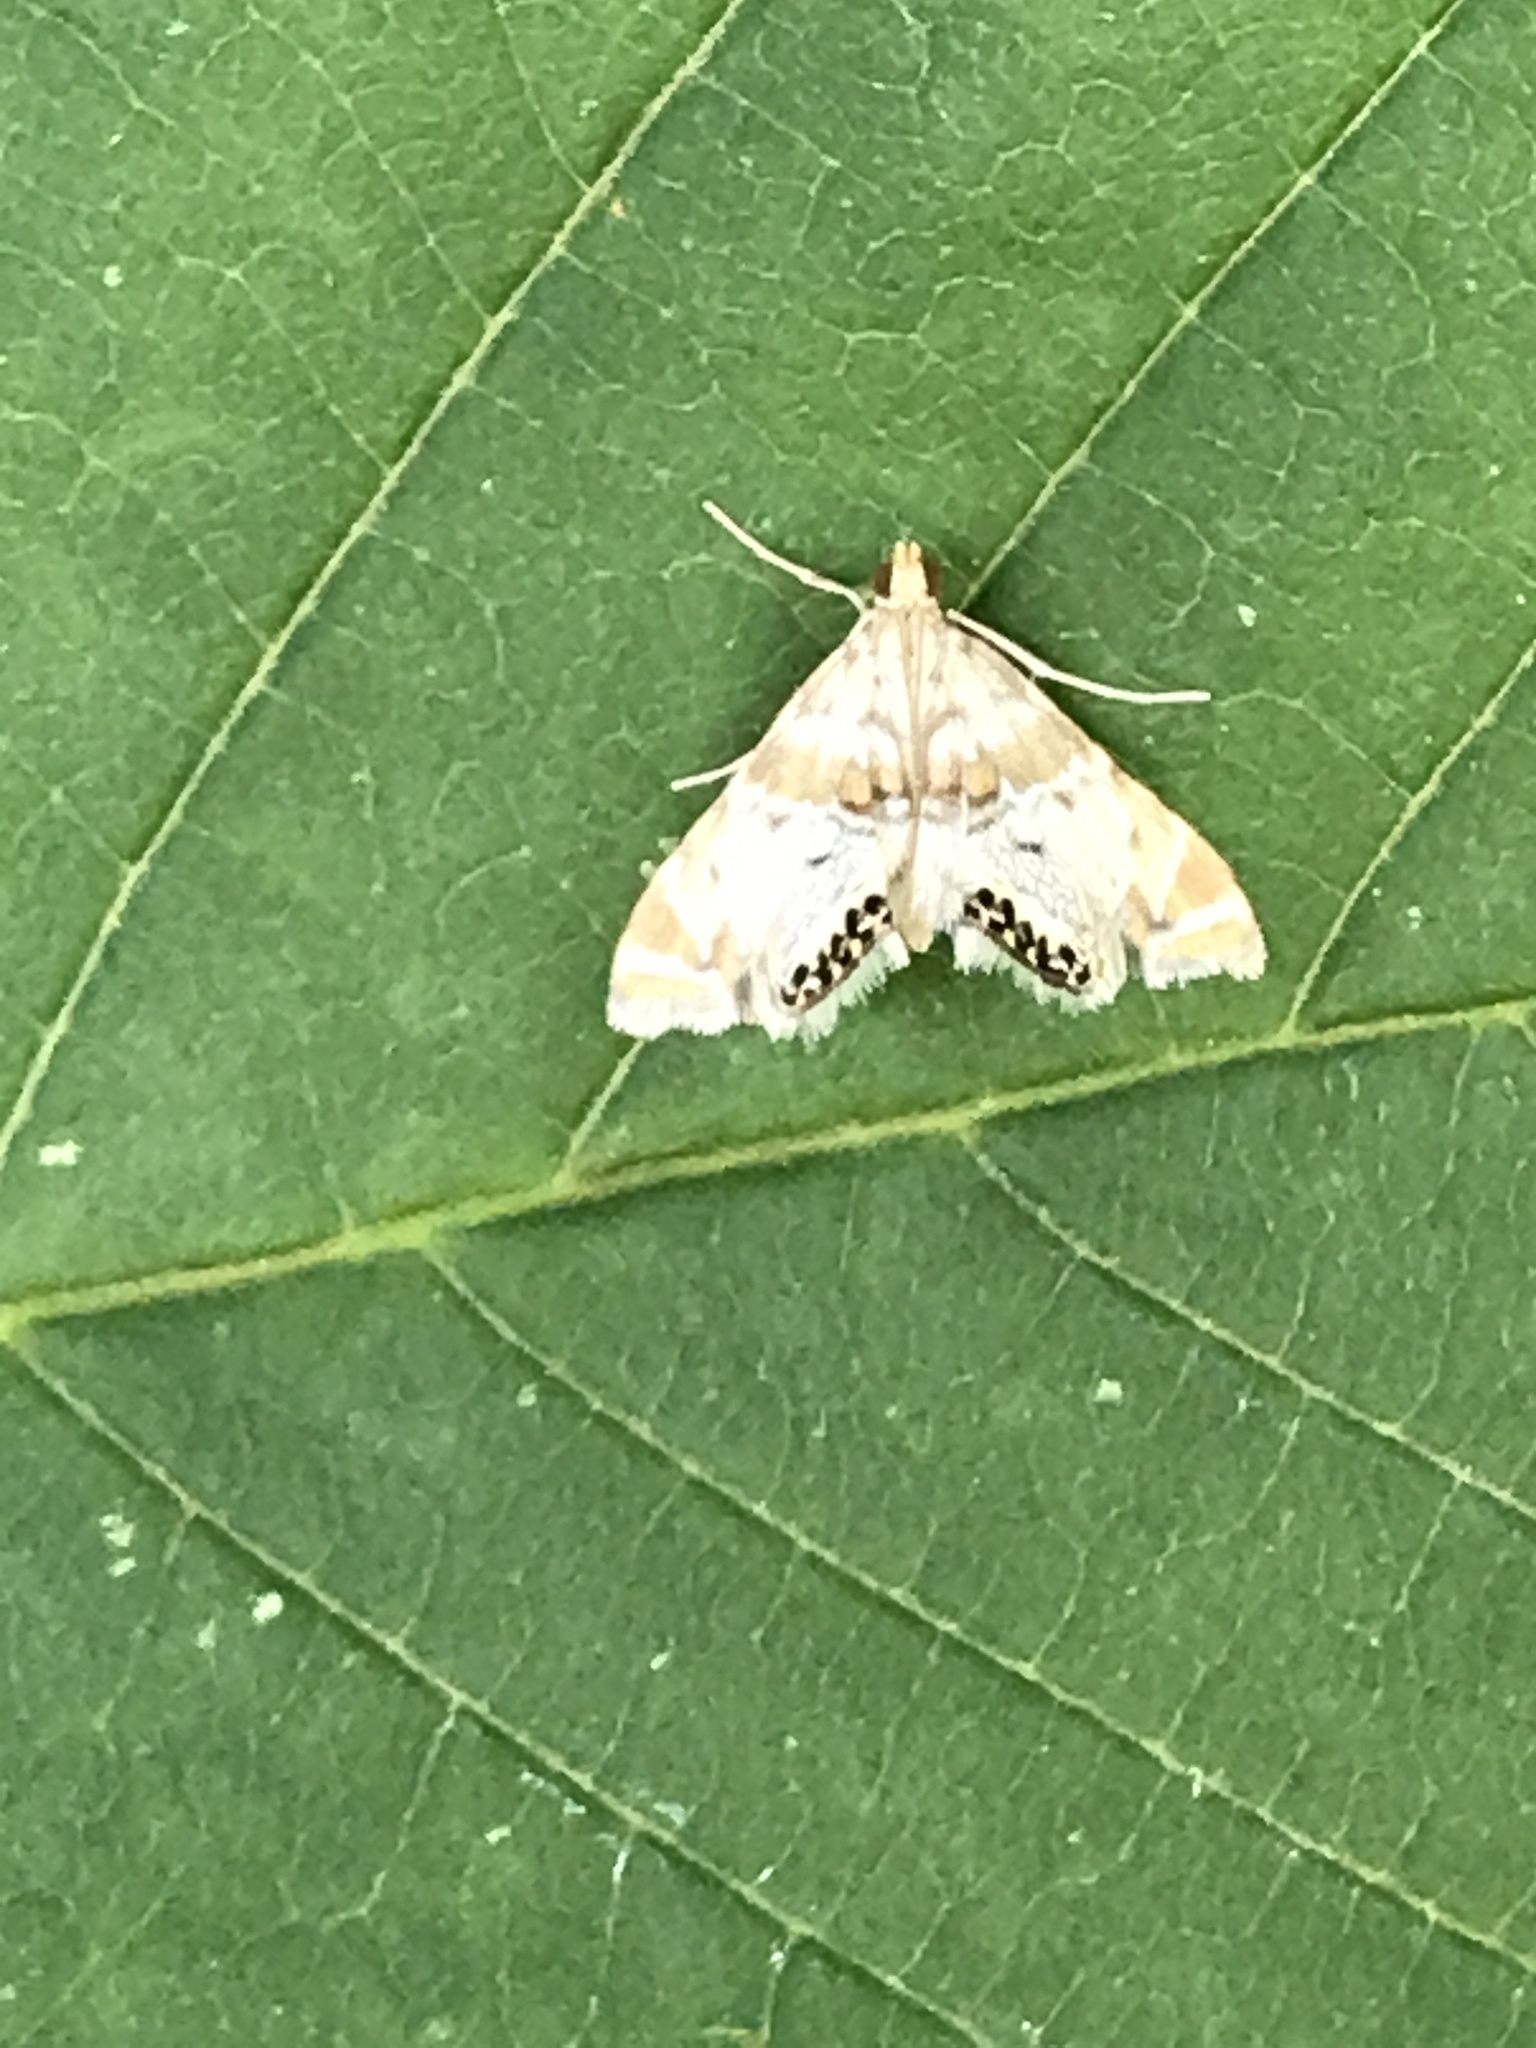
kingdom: Animalia
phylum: Arthropoda
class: Insecta
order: Lepidoptera
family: Crambidae
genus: Petrophila
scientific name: Petrophila confusalis
